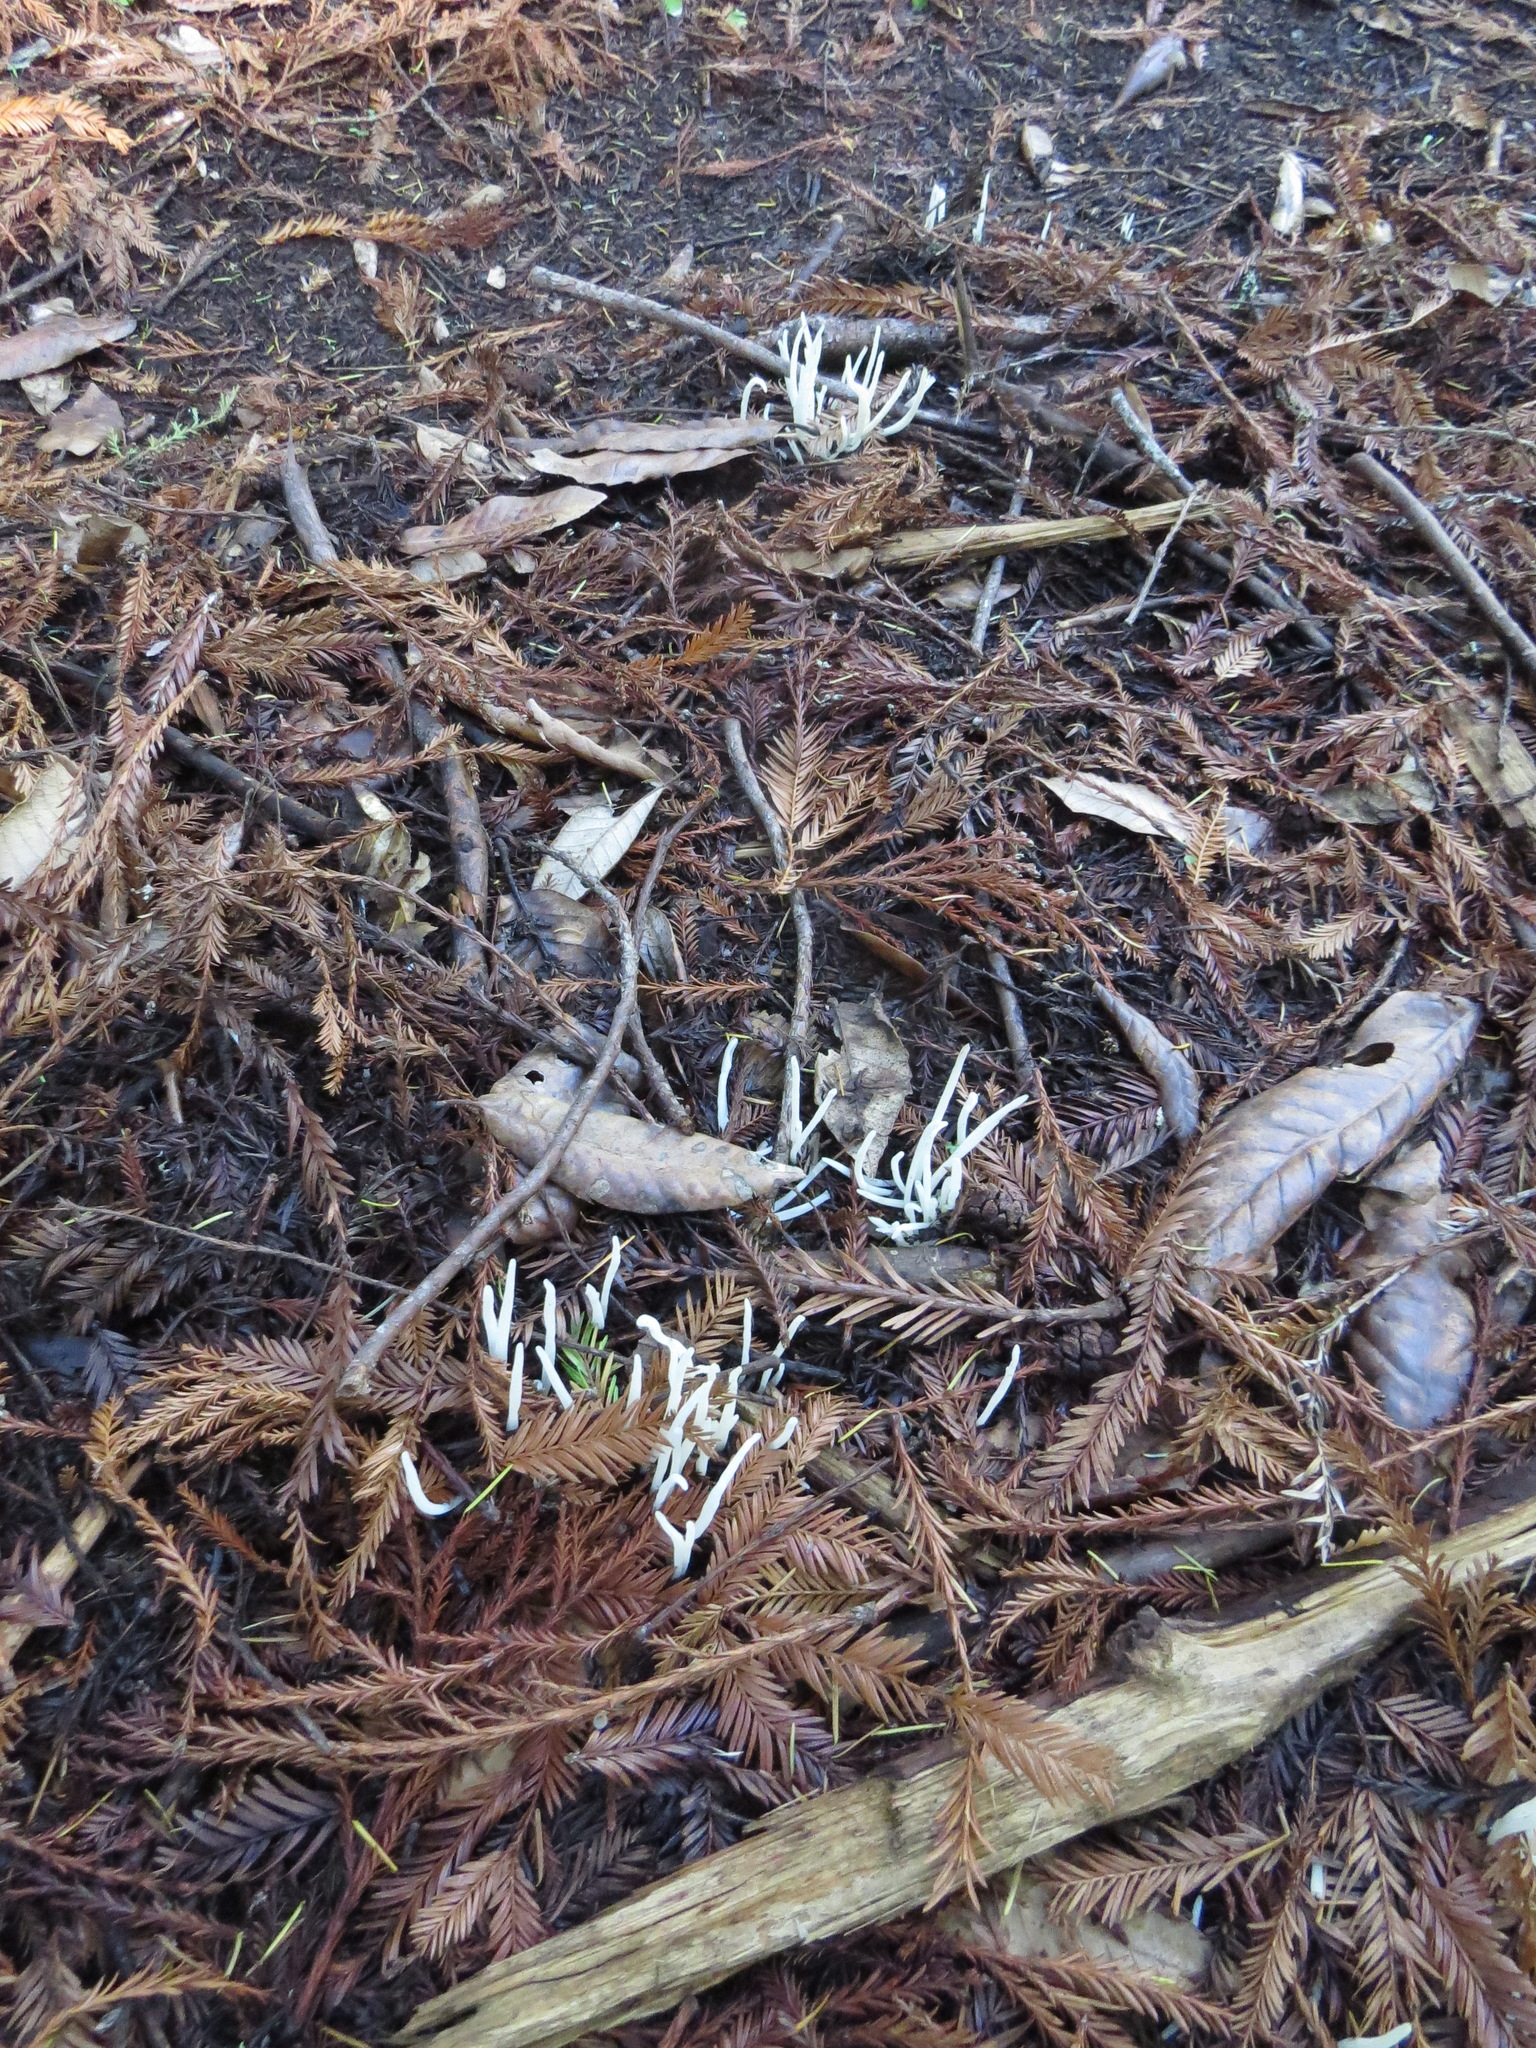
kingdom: Fungi
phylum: Basidiomycota
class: Agaricomycetes
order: Agaricales
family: Clavariaceae
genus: Clavaria
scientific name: Clavaria fragilis
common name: White spindles
